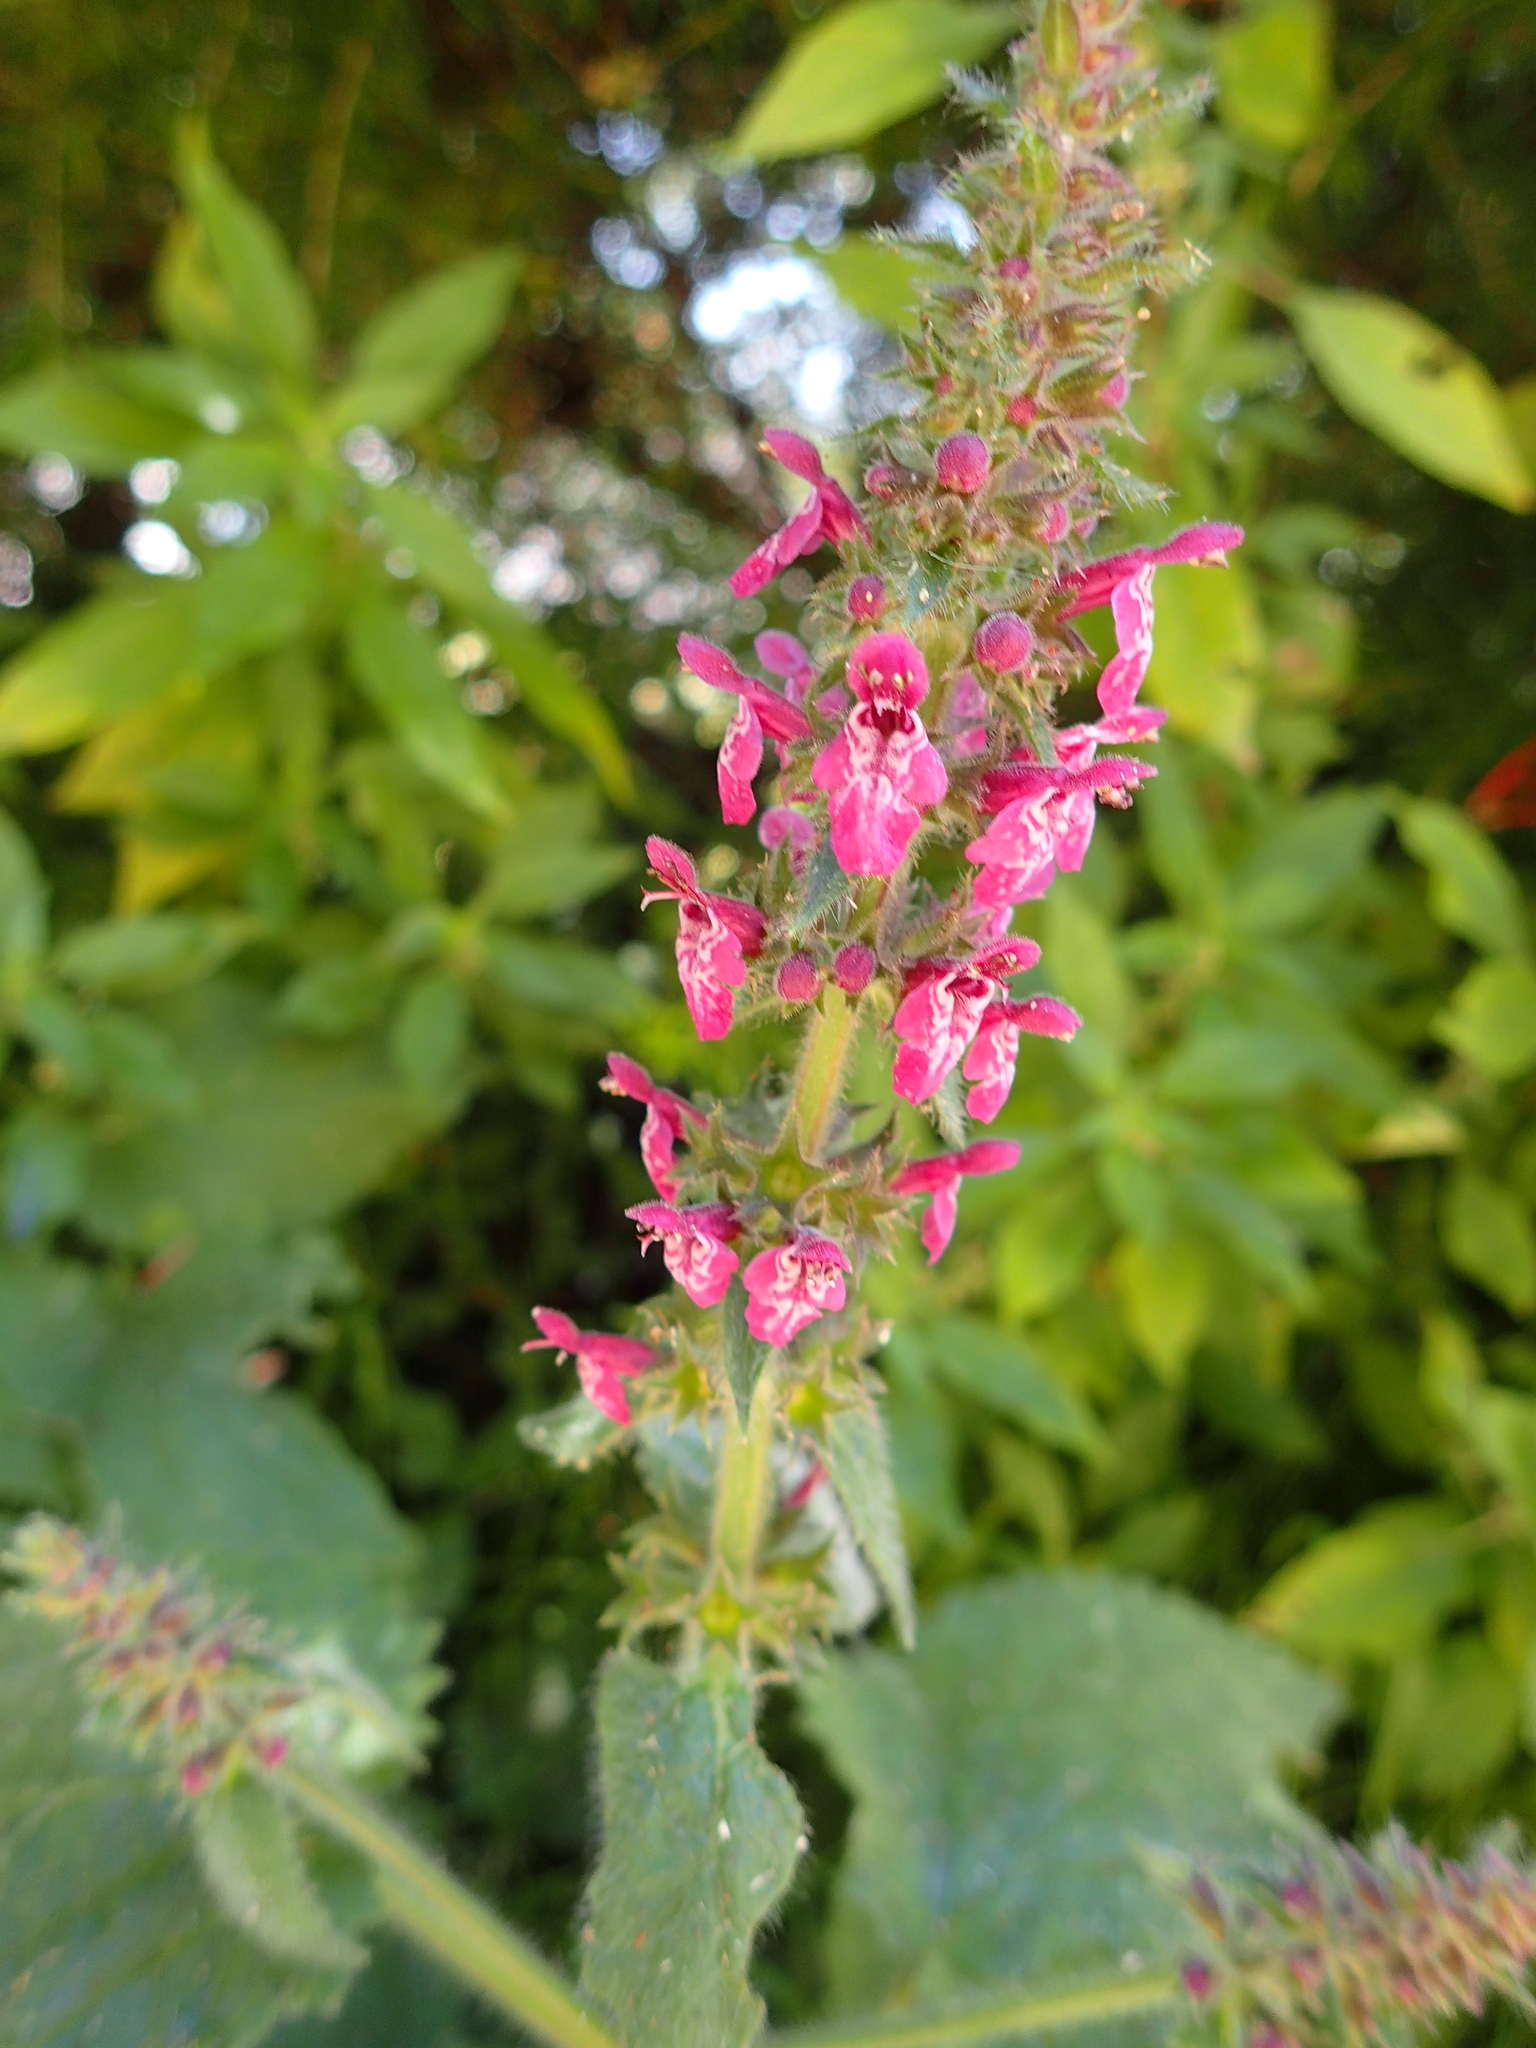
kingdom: Plantae
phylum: Tracheophyta
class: Magnoliopsida
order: Lamiales
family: Lamiaceae
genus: Stachys
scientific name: Stachys sylvatica
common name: Hedge woundwort
